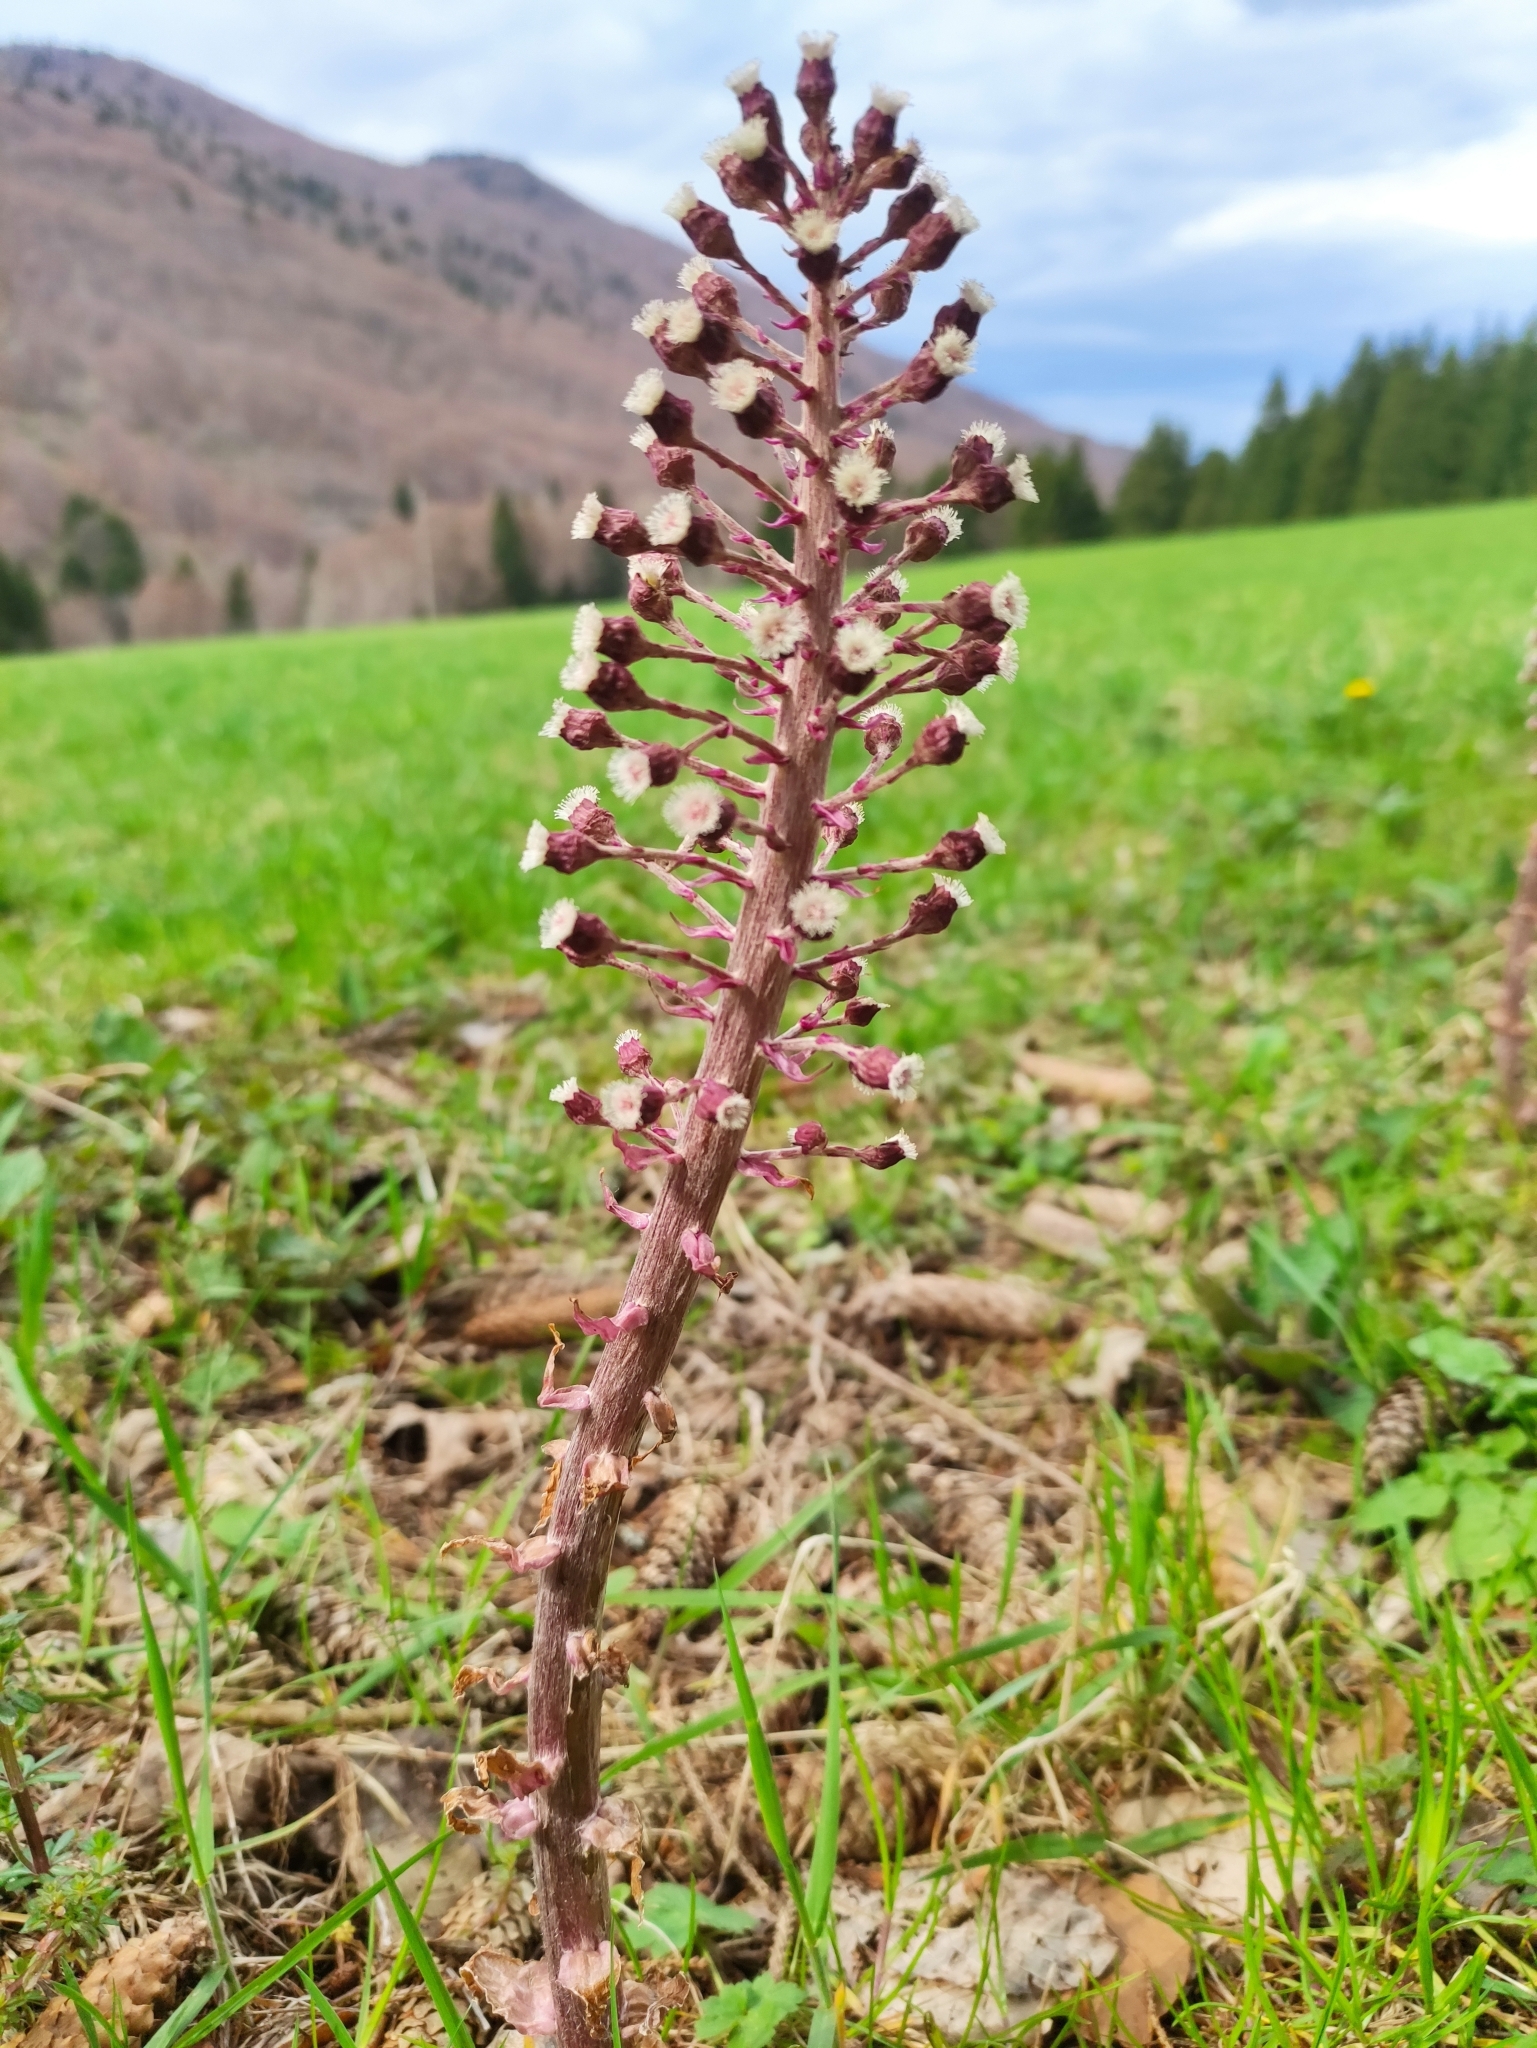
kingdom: Plantae
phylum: Tracheophyta
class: Magnoliopsida
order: Asterales
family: Asteraceae
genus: Petasites
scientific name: Petasites hybridus
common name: Butterbur
